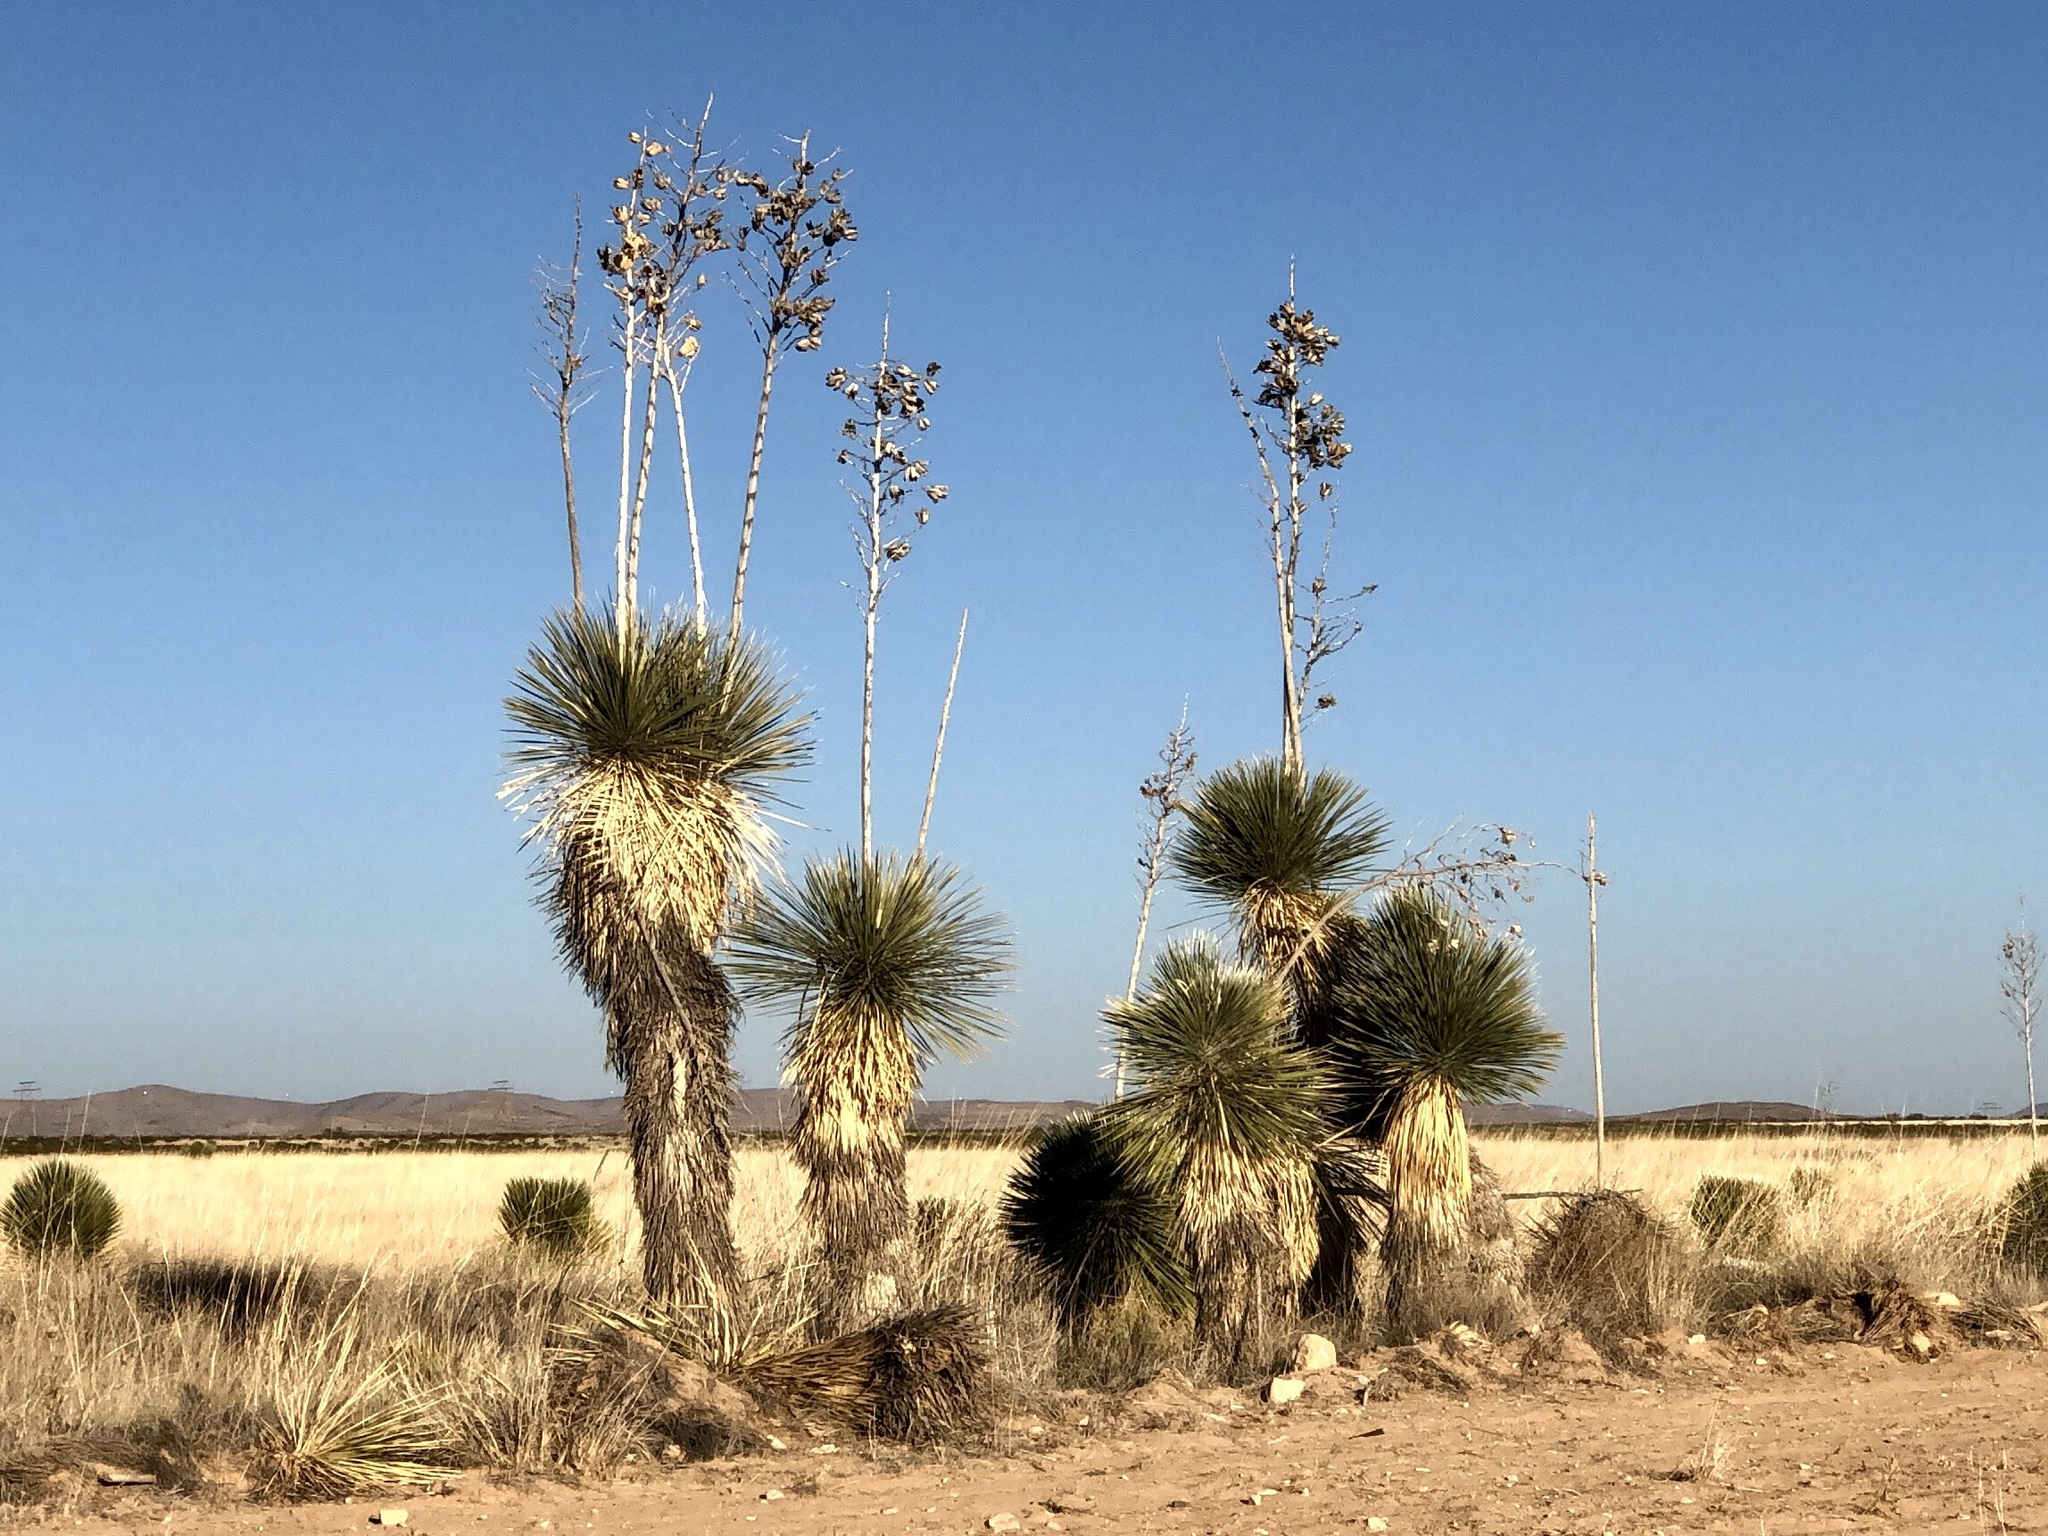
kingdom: Plantae
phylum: Tracheophyta
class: Liliopsida
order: Asparagales
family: Asparagaceae
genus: Yucca
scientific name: Yucca elata
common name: Palmella
